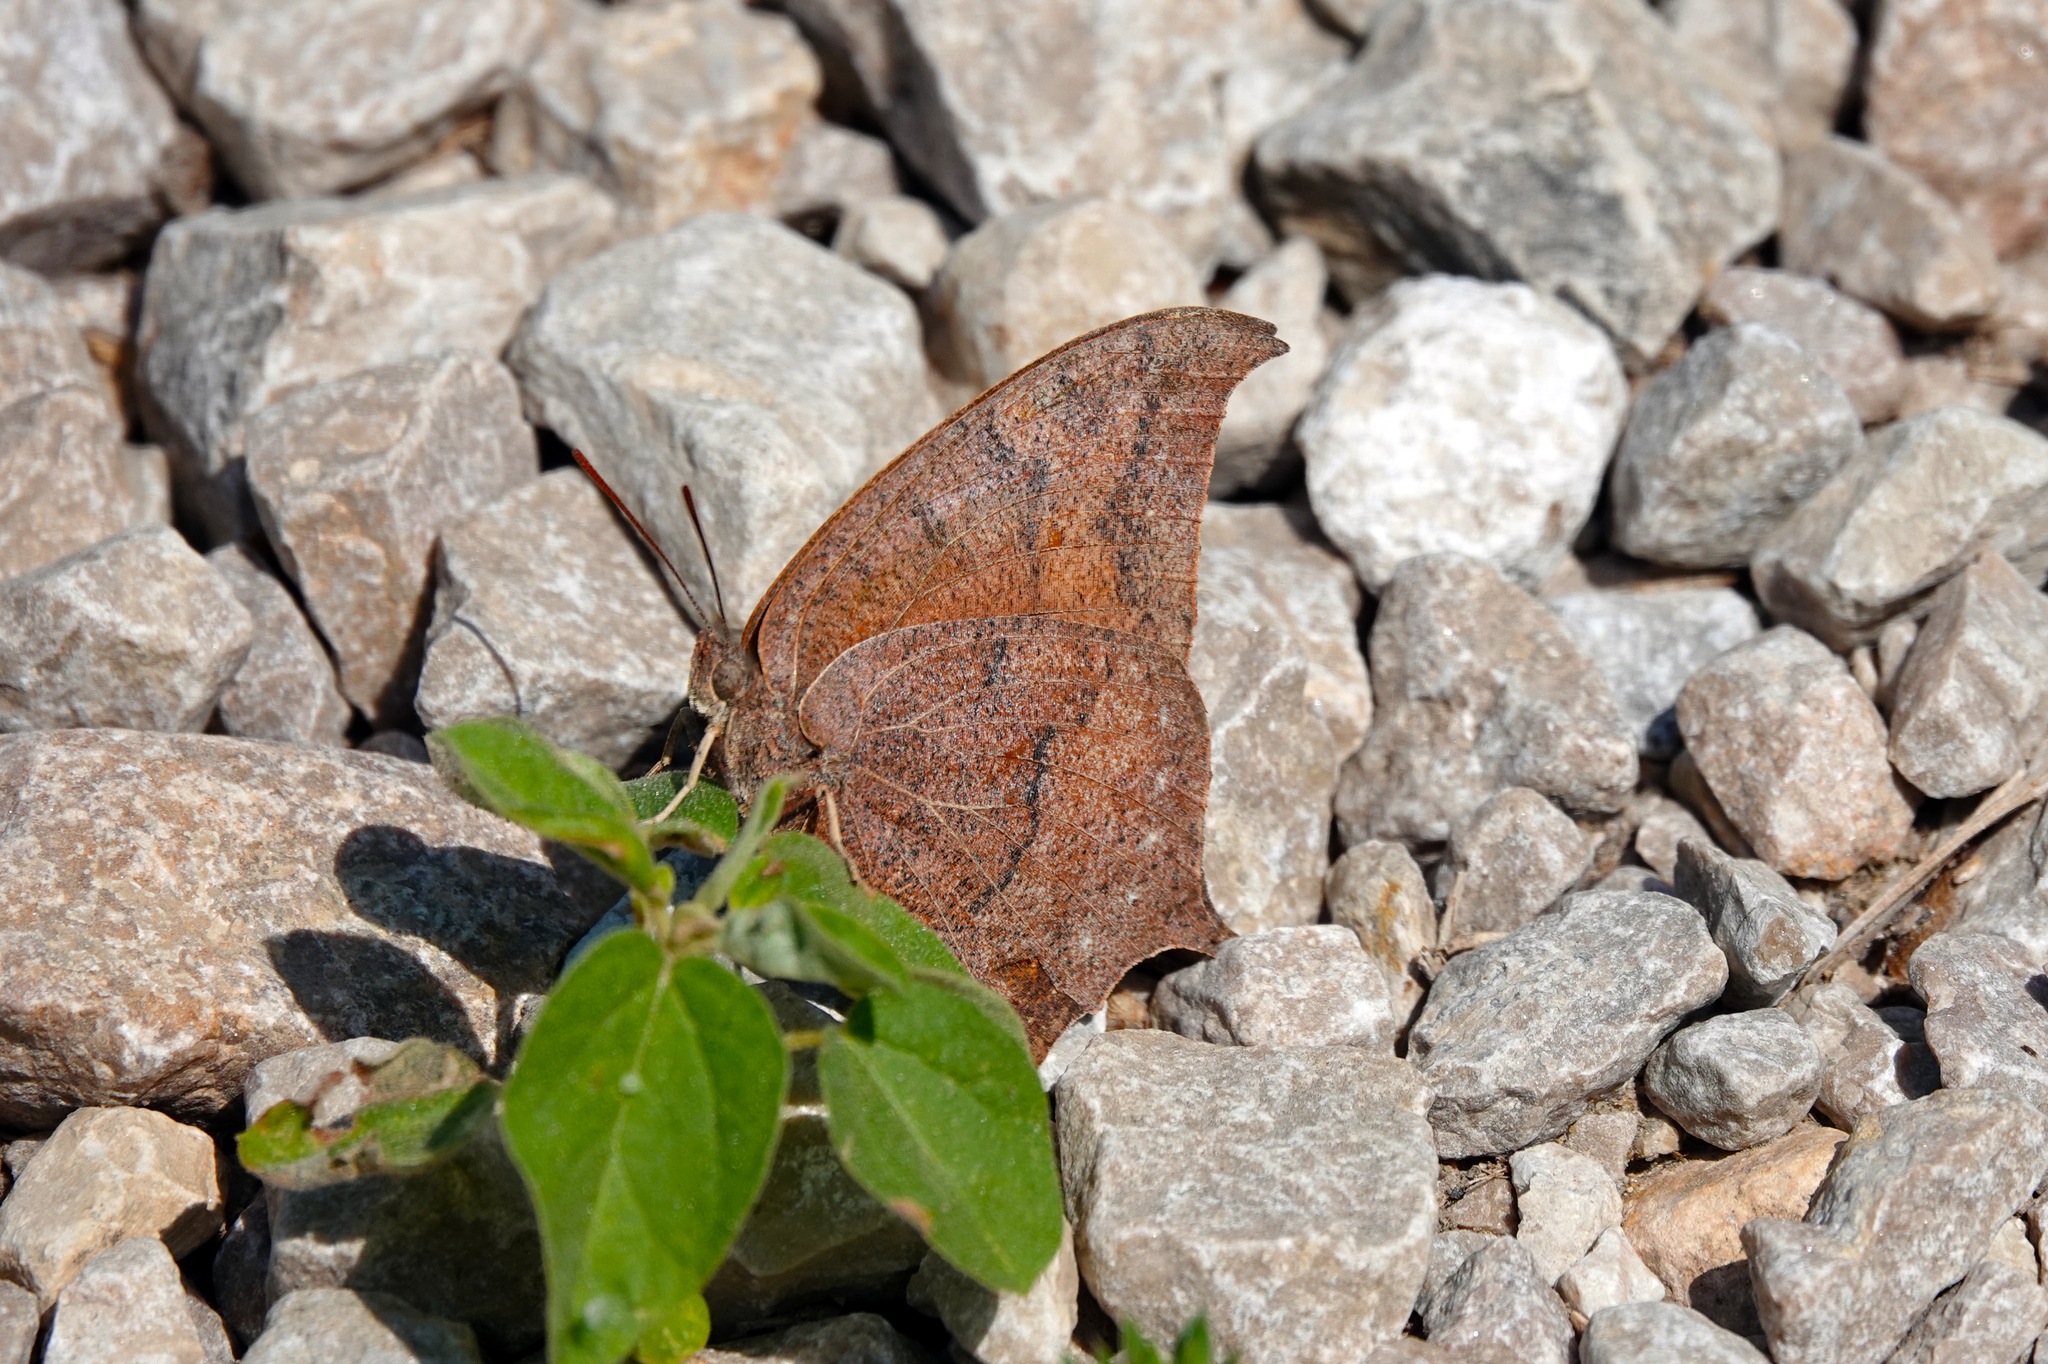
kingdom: Animalia
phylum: Arthropoda
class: Insecta
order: Lepidoptera
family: Nymphalidae
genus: Anaea
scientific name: Anaea andria
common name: Goatweed leafwing
